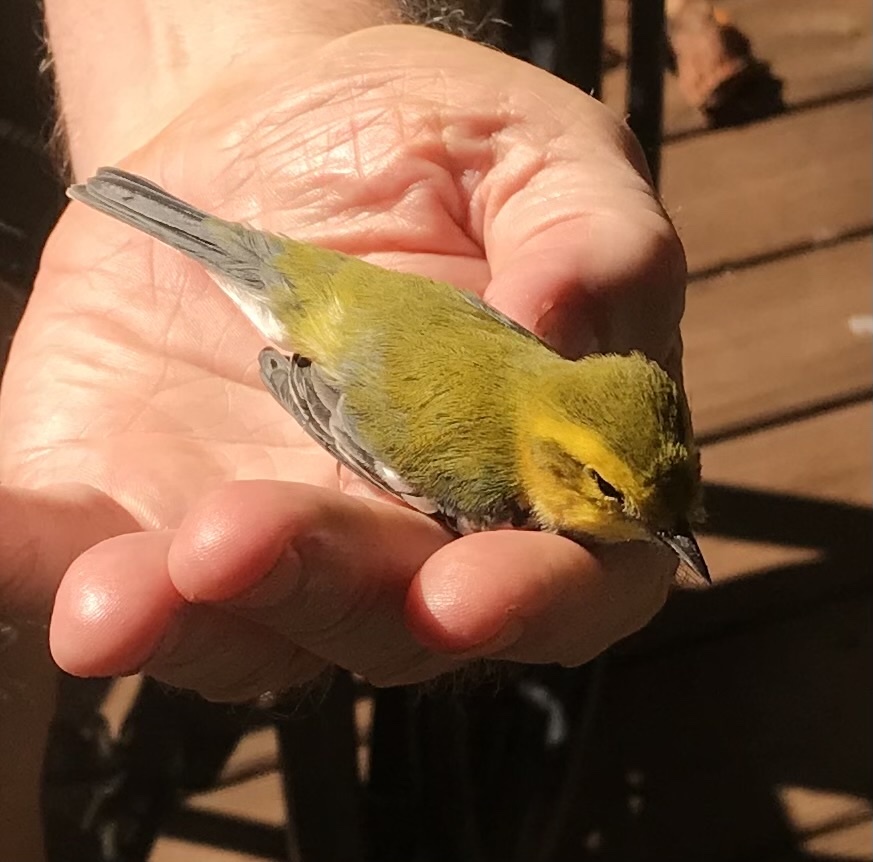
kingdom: Animalia
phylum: Chordata
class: Aves
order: Passeriformes
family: Parulidae
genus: Setophaga
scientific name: Setophaga virens
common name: Black-throated green warbler
